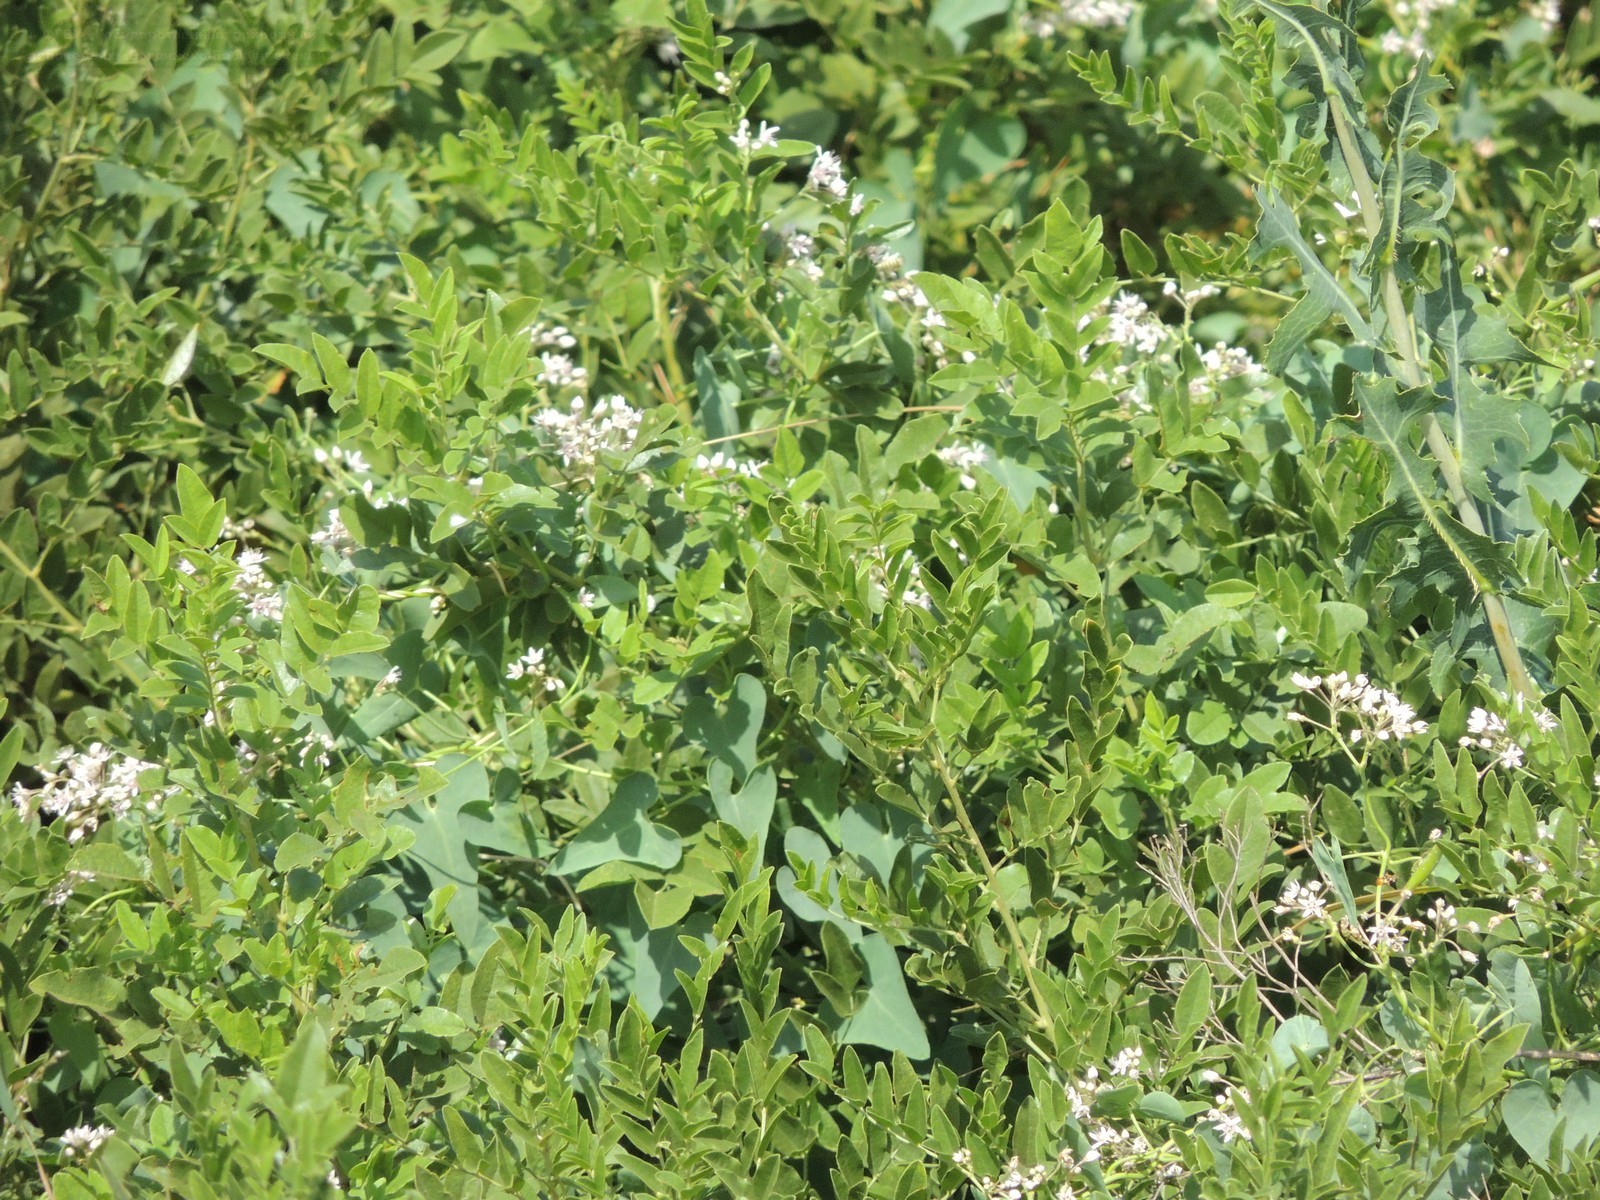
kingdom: Plantae
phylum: Tracheophyta
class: Magnoliopsida
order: Fabales
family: Fabaceae
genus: Glycyrrhiza
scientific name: Glycyrrhiza glabra
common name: Liquorice
